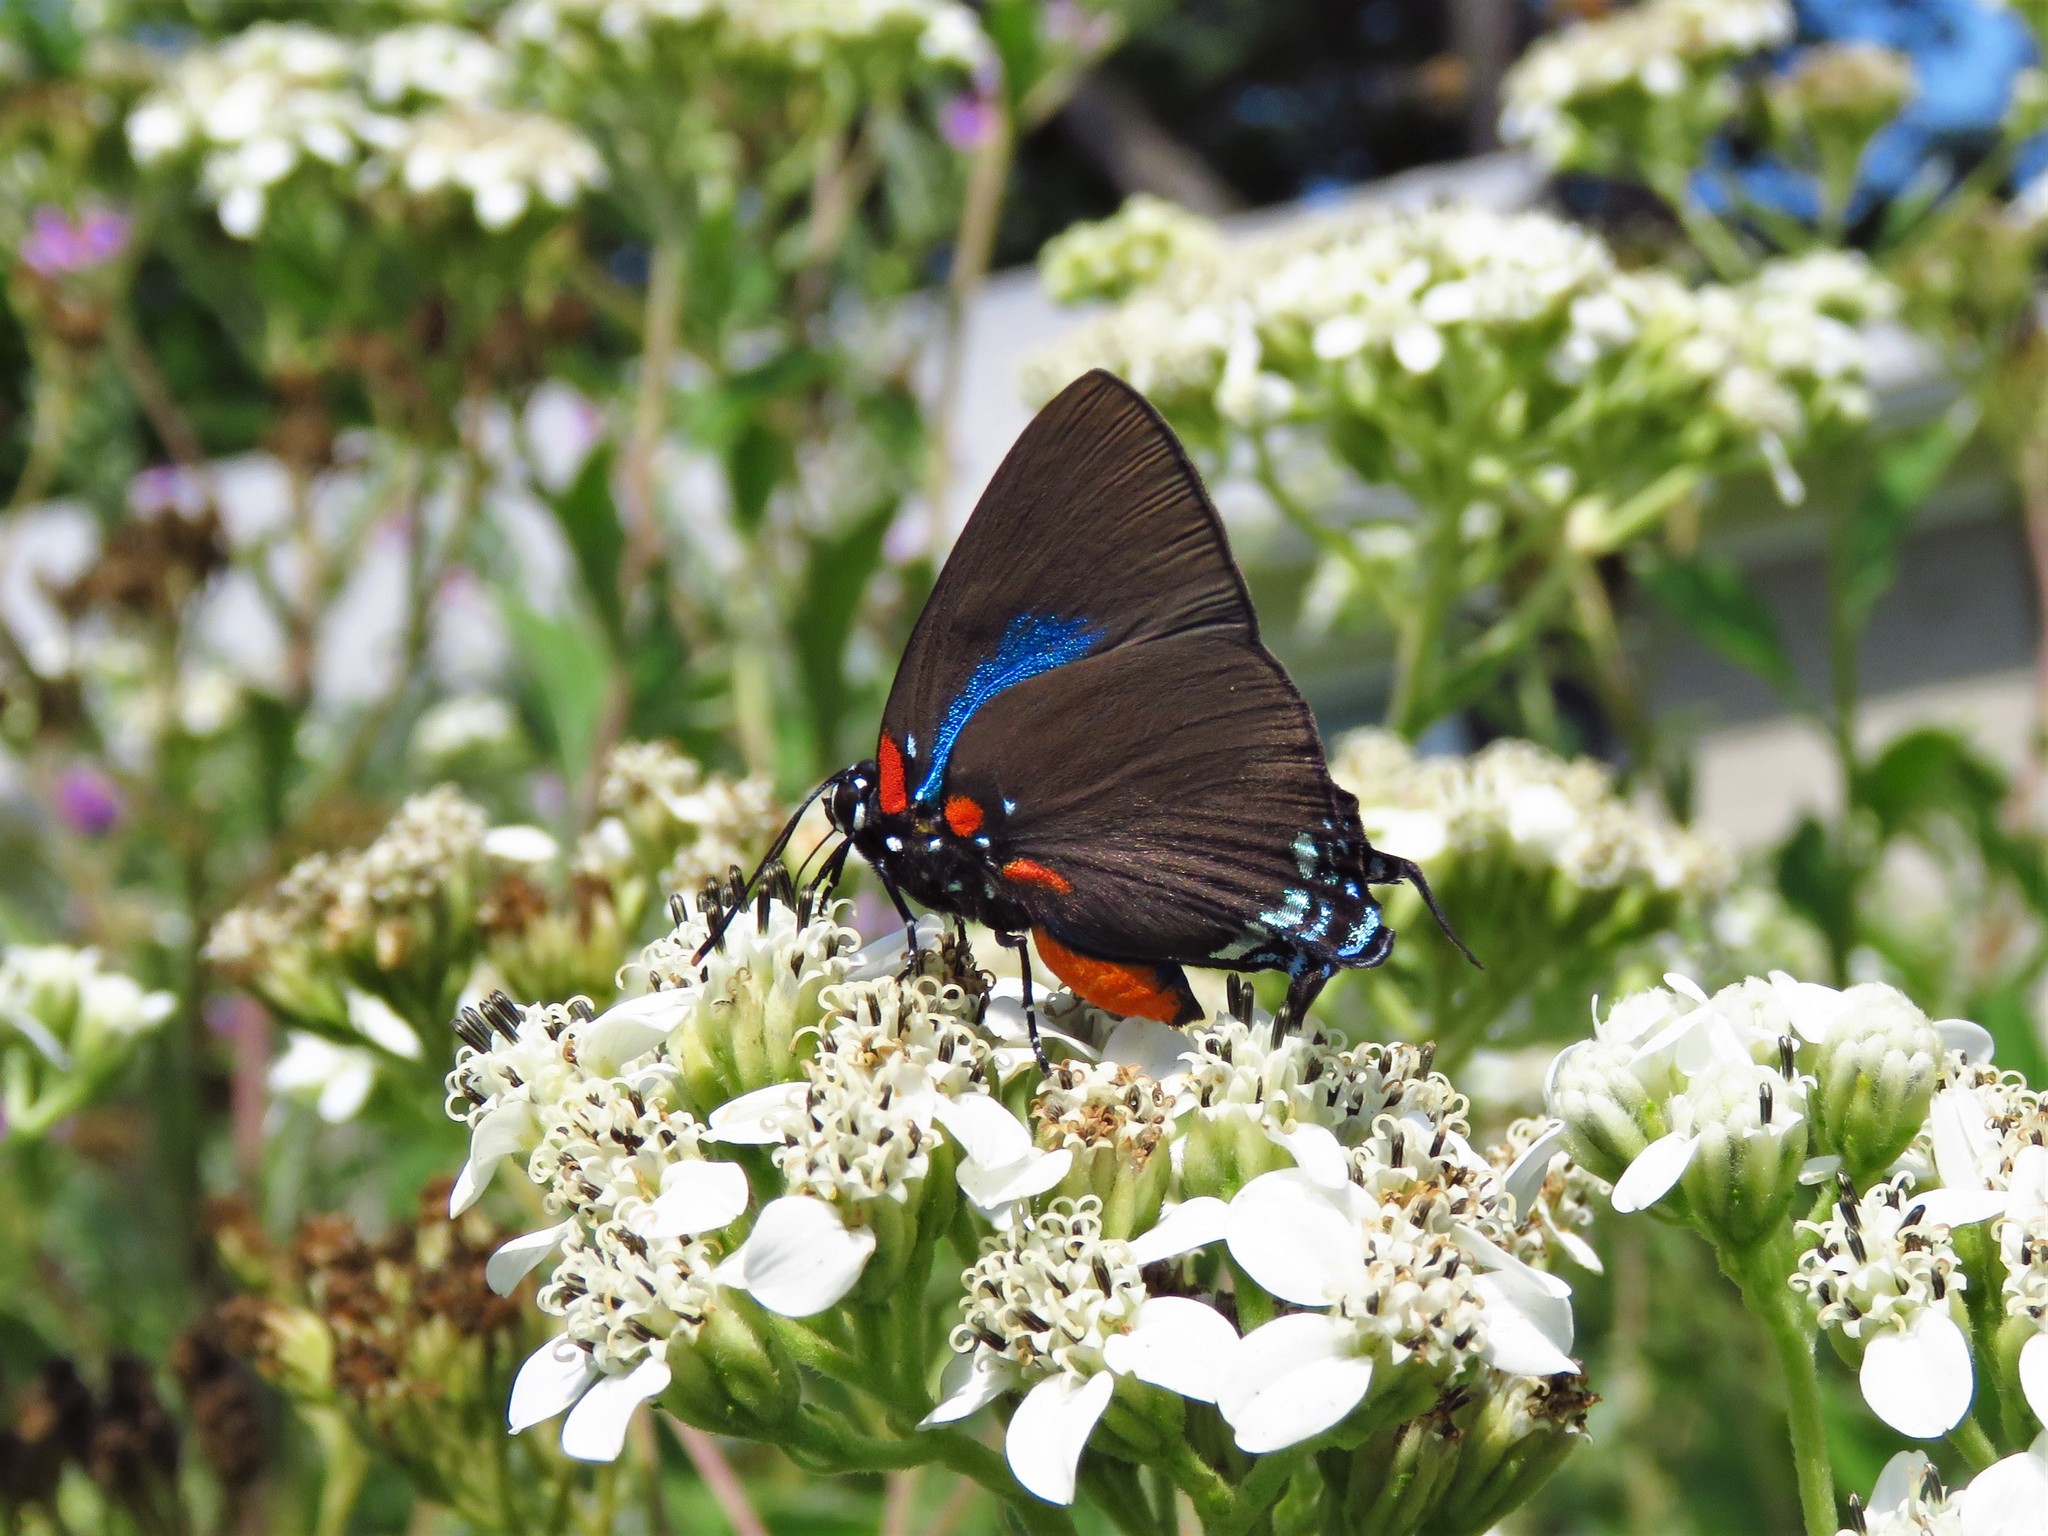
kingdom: Animalia
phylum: Arthropoda
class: Insecta
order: Lepidoptera
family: Lycaenidae
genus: Atlides
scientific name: Atlides halesus
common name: Great purple hairstreak
